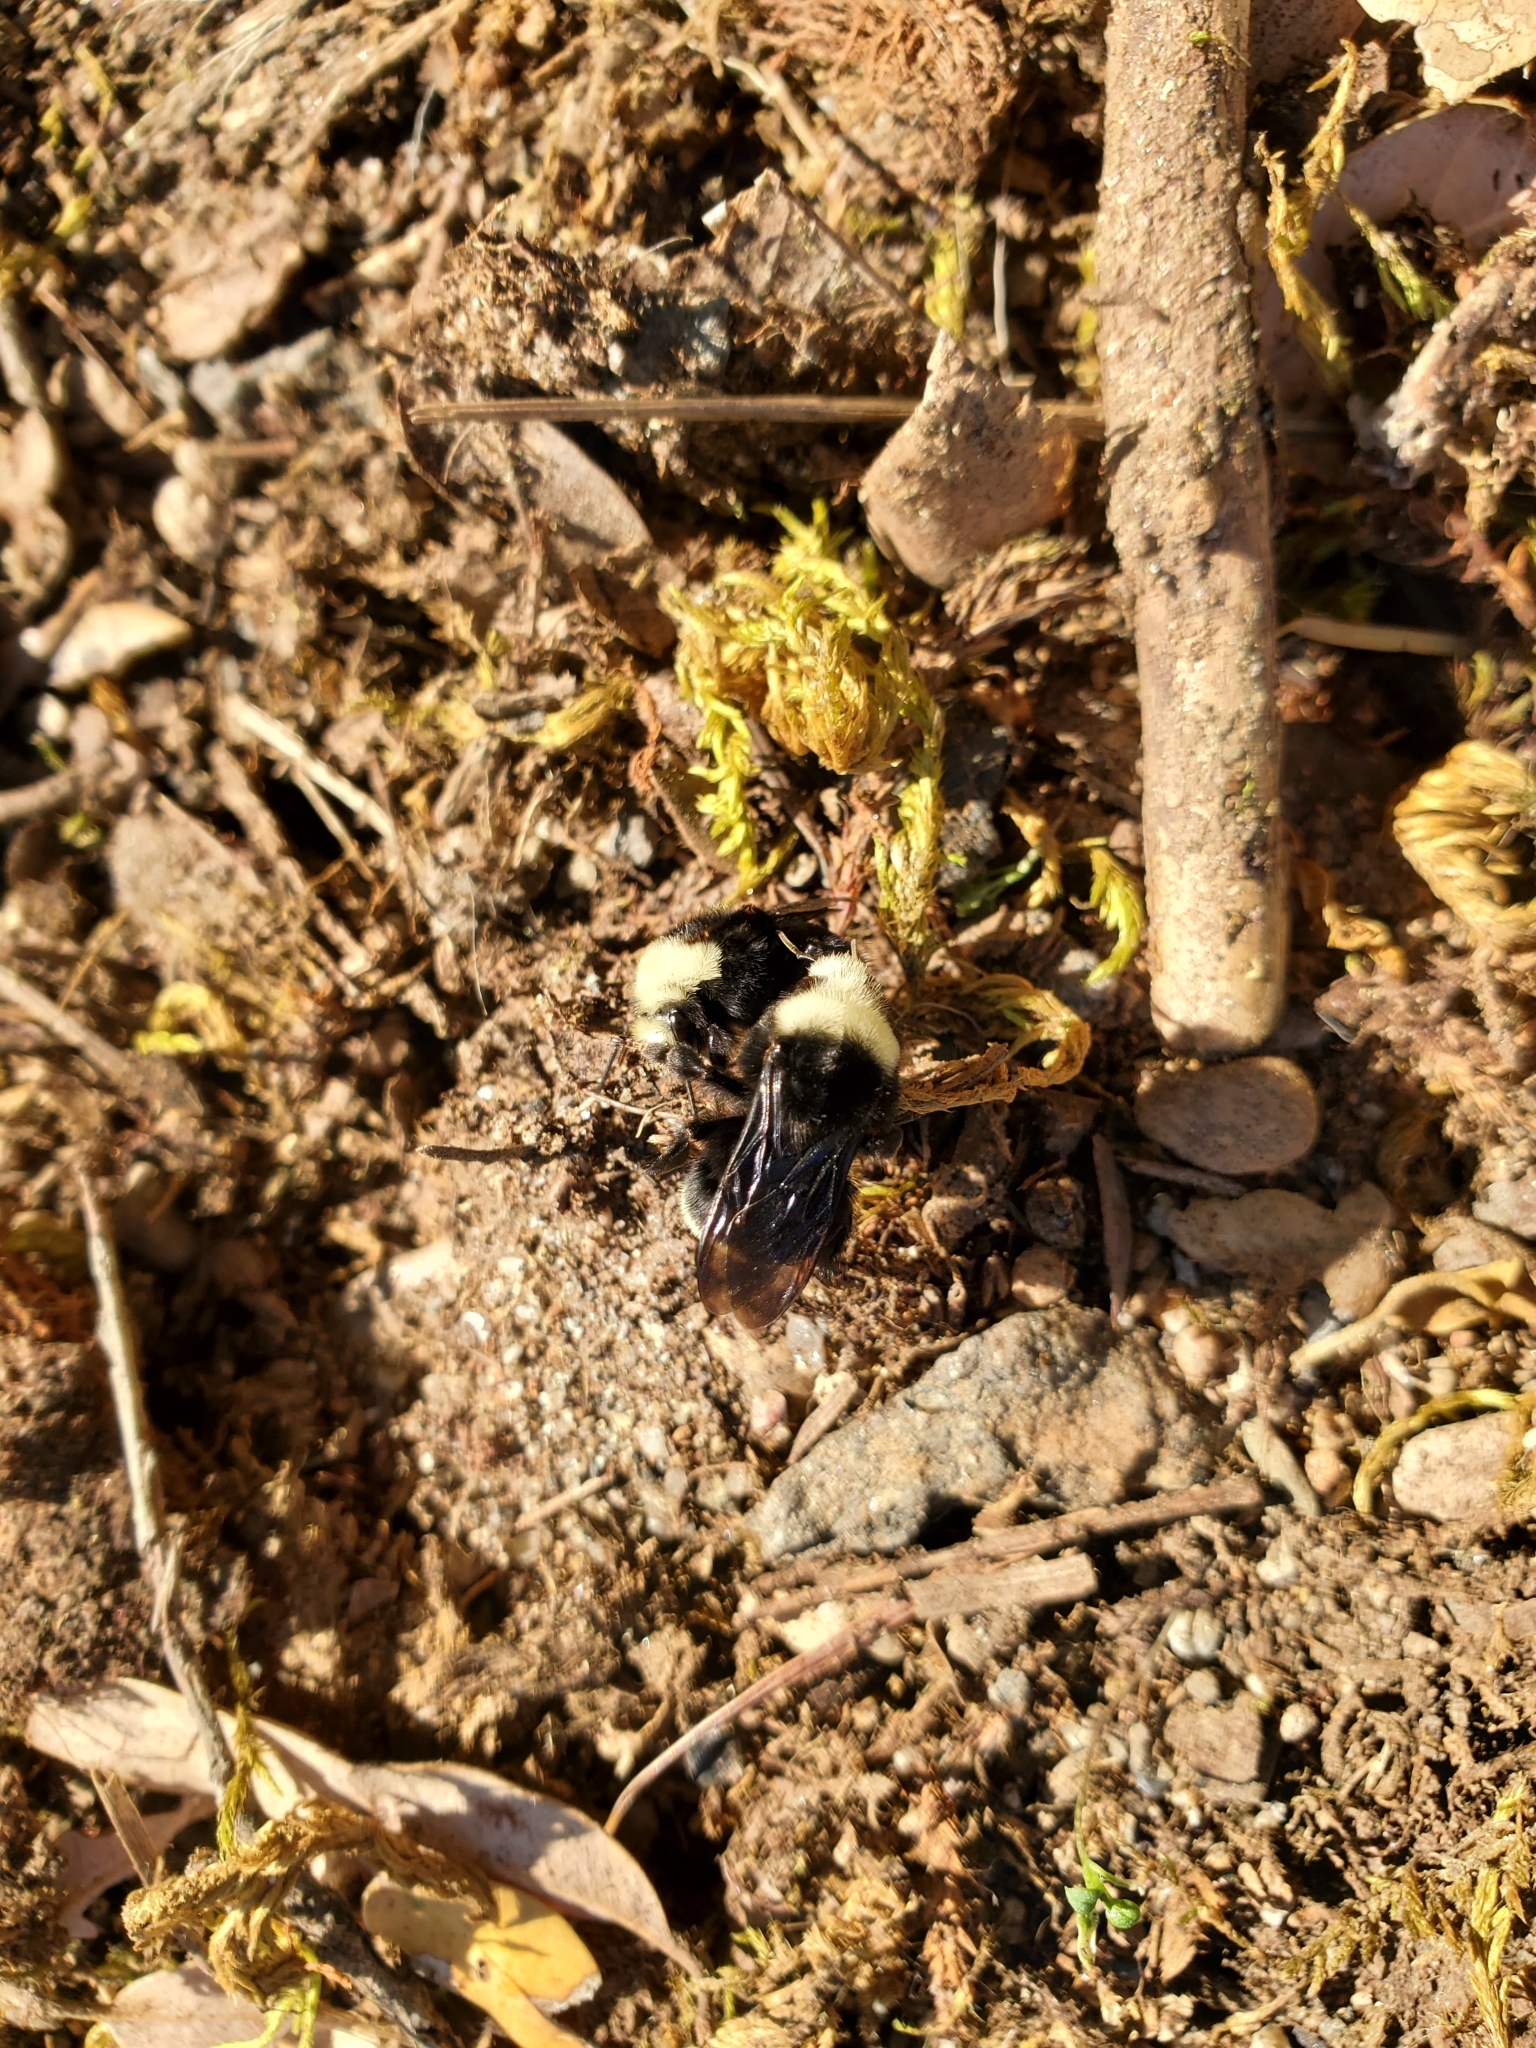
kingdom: Animalia
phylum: Arthropoda
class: Insecta
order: Hymenoptera
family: Apidae
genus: Bombus
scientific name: Bombus vosnesenskii
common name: Vosnesensky bumble bee
